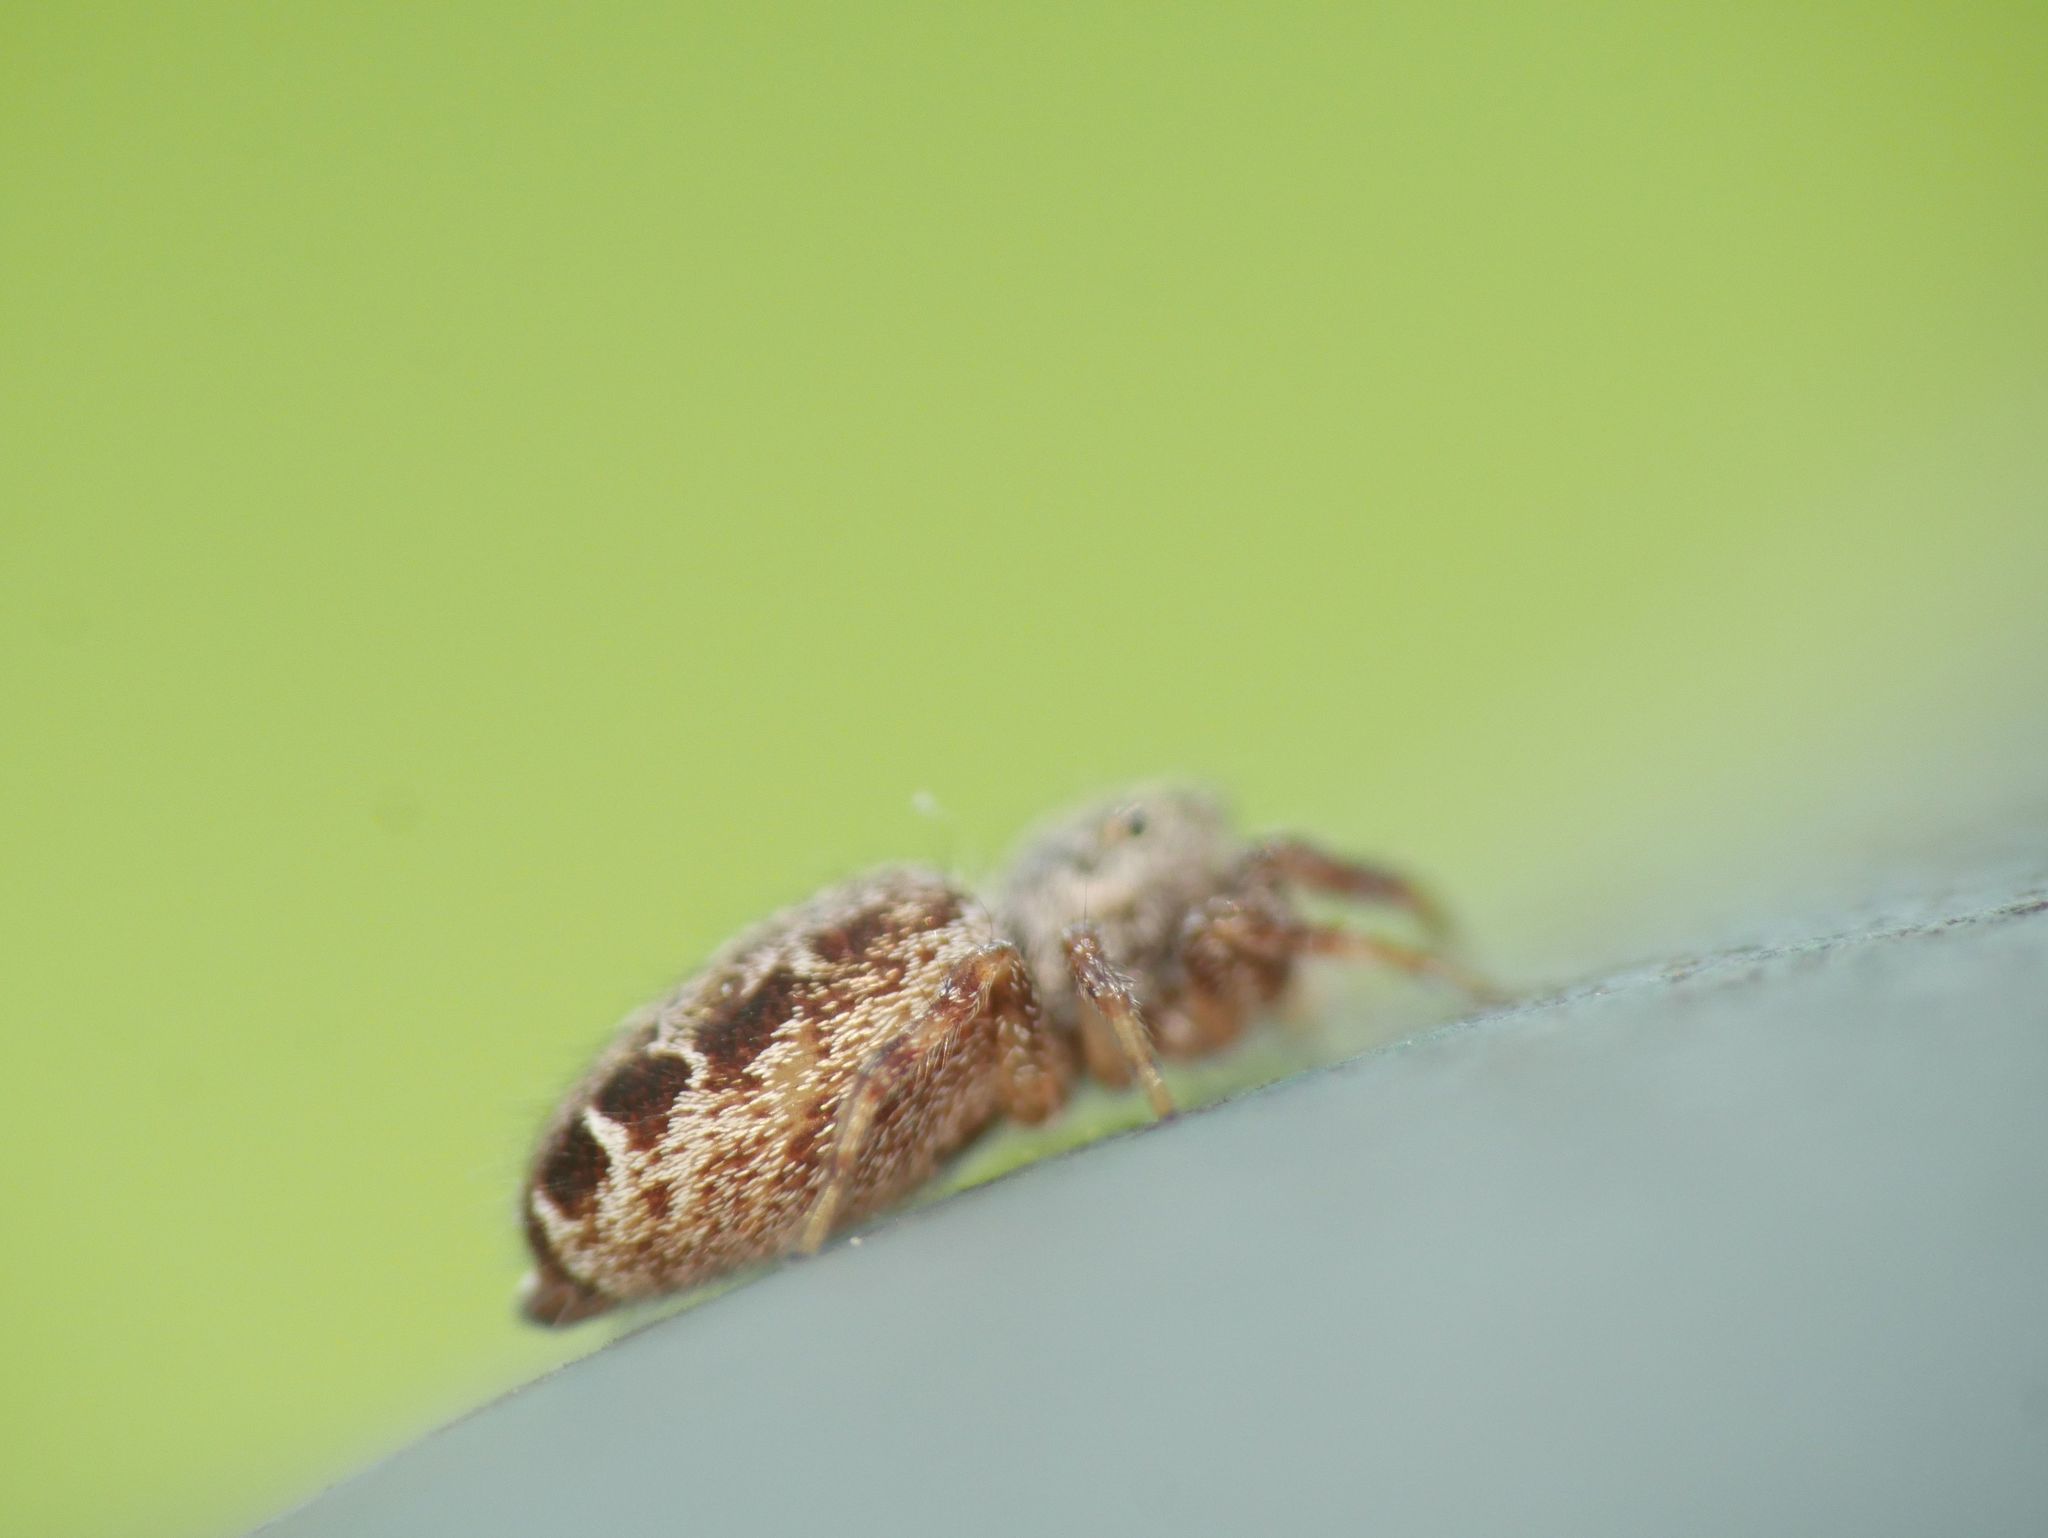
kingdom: Animalia
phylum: Arthropoda
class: Arachnida
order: Araneae
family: Salticidae
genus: Pelegrina
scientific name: Pelegrina proterva
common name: Common white-cheeked jumping spider
